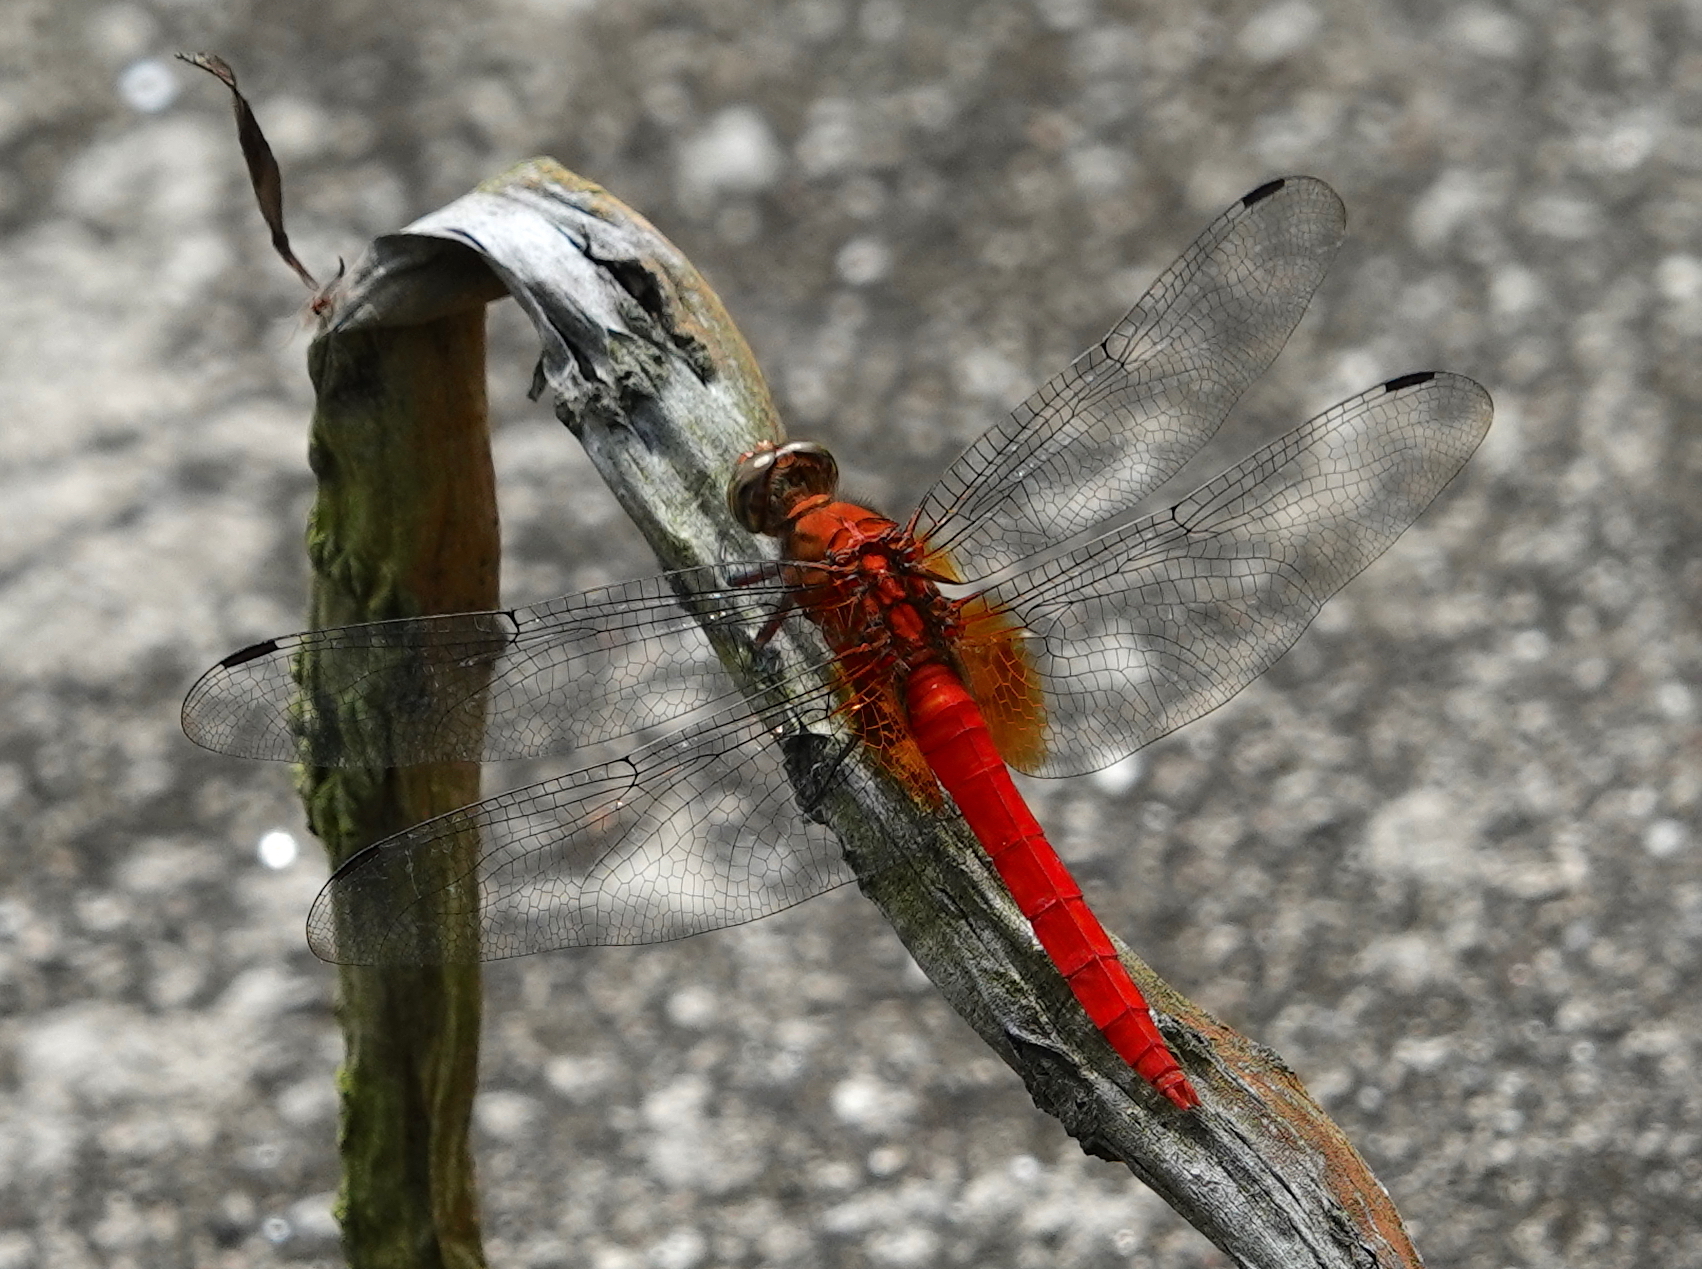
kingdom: Animalia
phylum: Arthropoda
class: Insecta
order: Odonata
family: Libellulidae
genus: Orthetrum
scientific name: Orthetrum testaceum
